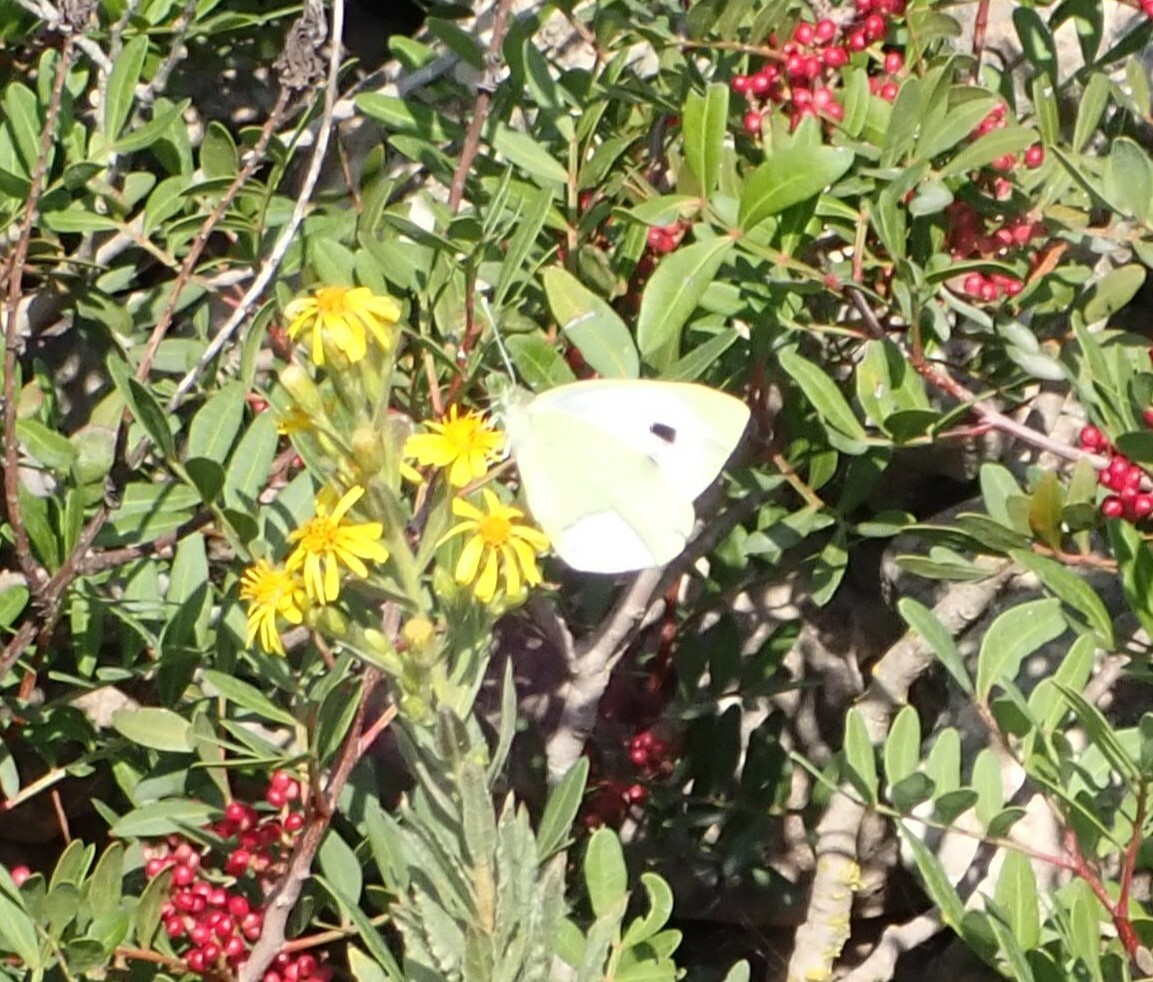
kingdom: Animalia
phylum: Arthropoda
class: Insecta
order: Lepidoptera
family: Pieridae
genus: Pieris
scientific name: Pieris brassicae
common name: Large white
